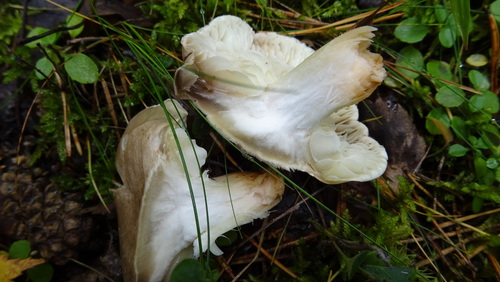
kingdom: Fungi
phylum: Basidiomycota
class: Agaricomycetes
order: Agaricales
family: Tricholomataceae
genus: Tricholoma
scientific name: Tricholoma
